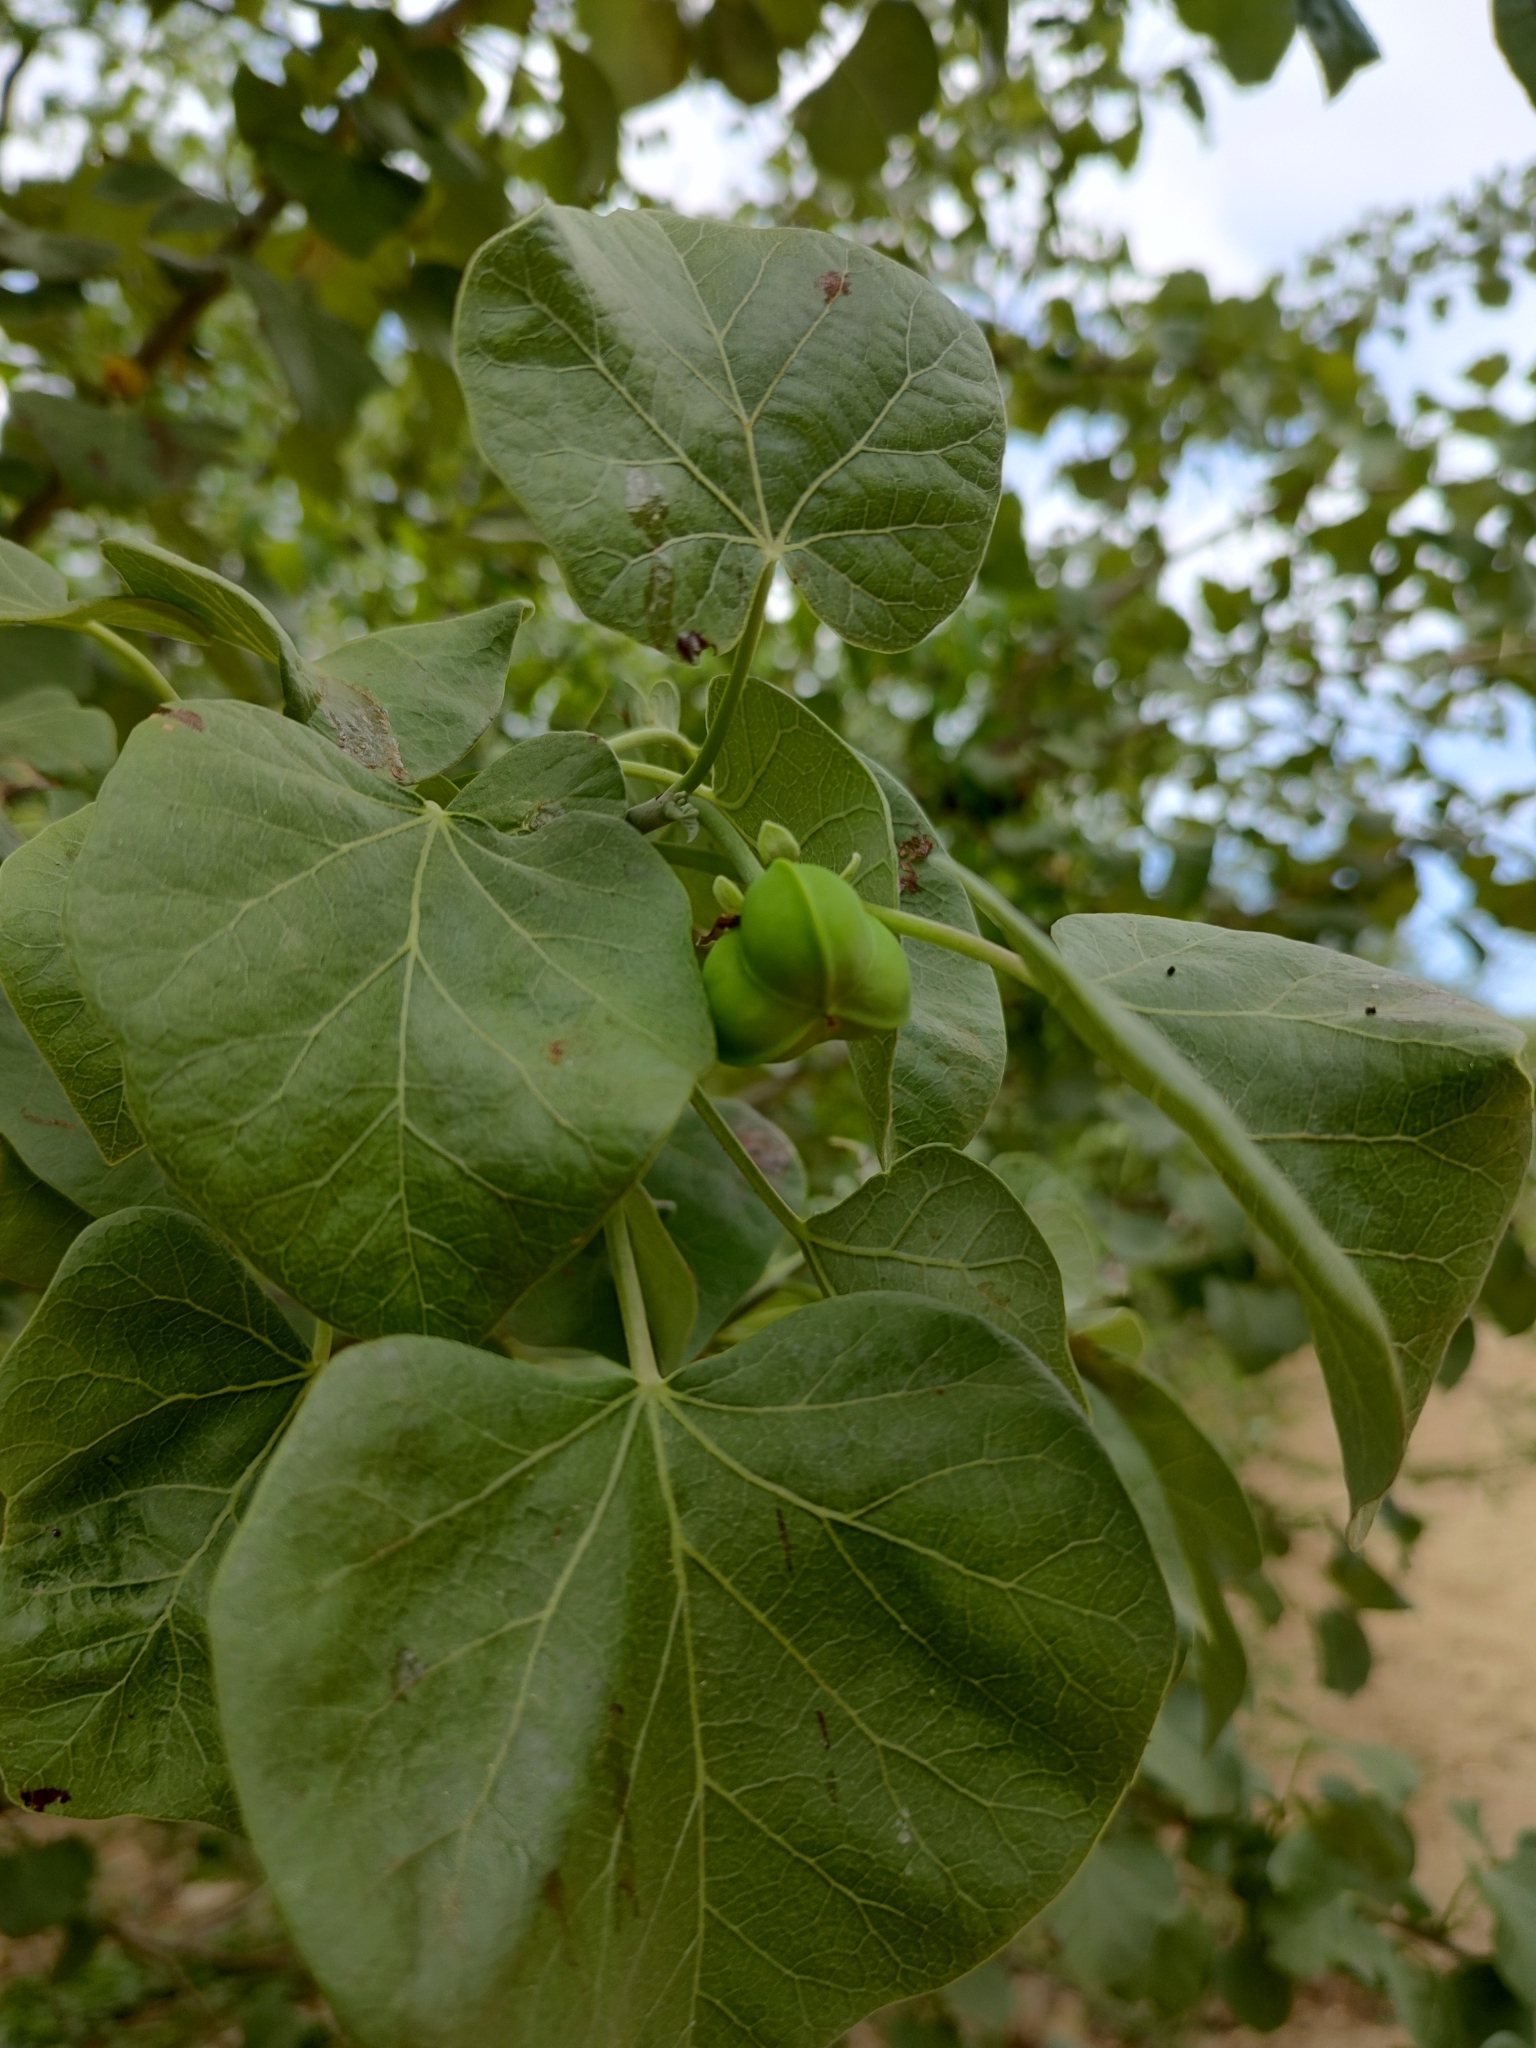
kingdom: Plantae
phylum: Tracheophyta
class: Magnoliopsida
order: Malpighiales
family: Euphorbiaceae
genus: Jatropha
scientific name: Jatropha cinerea
